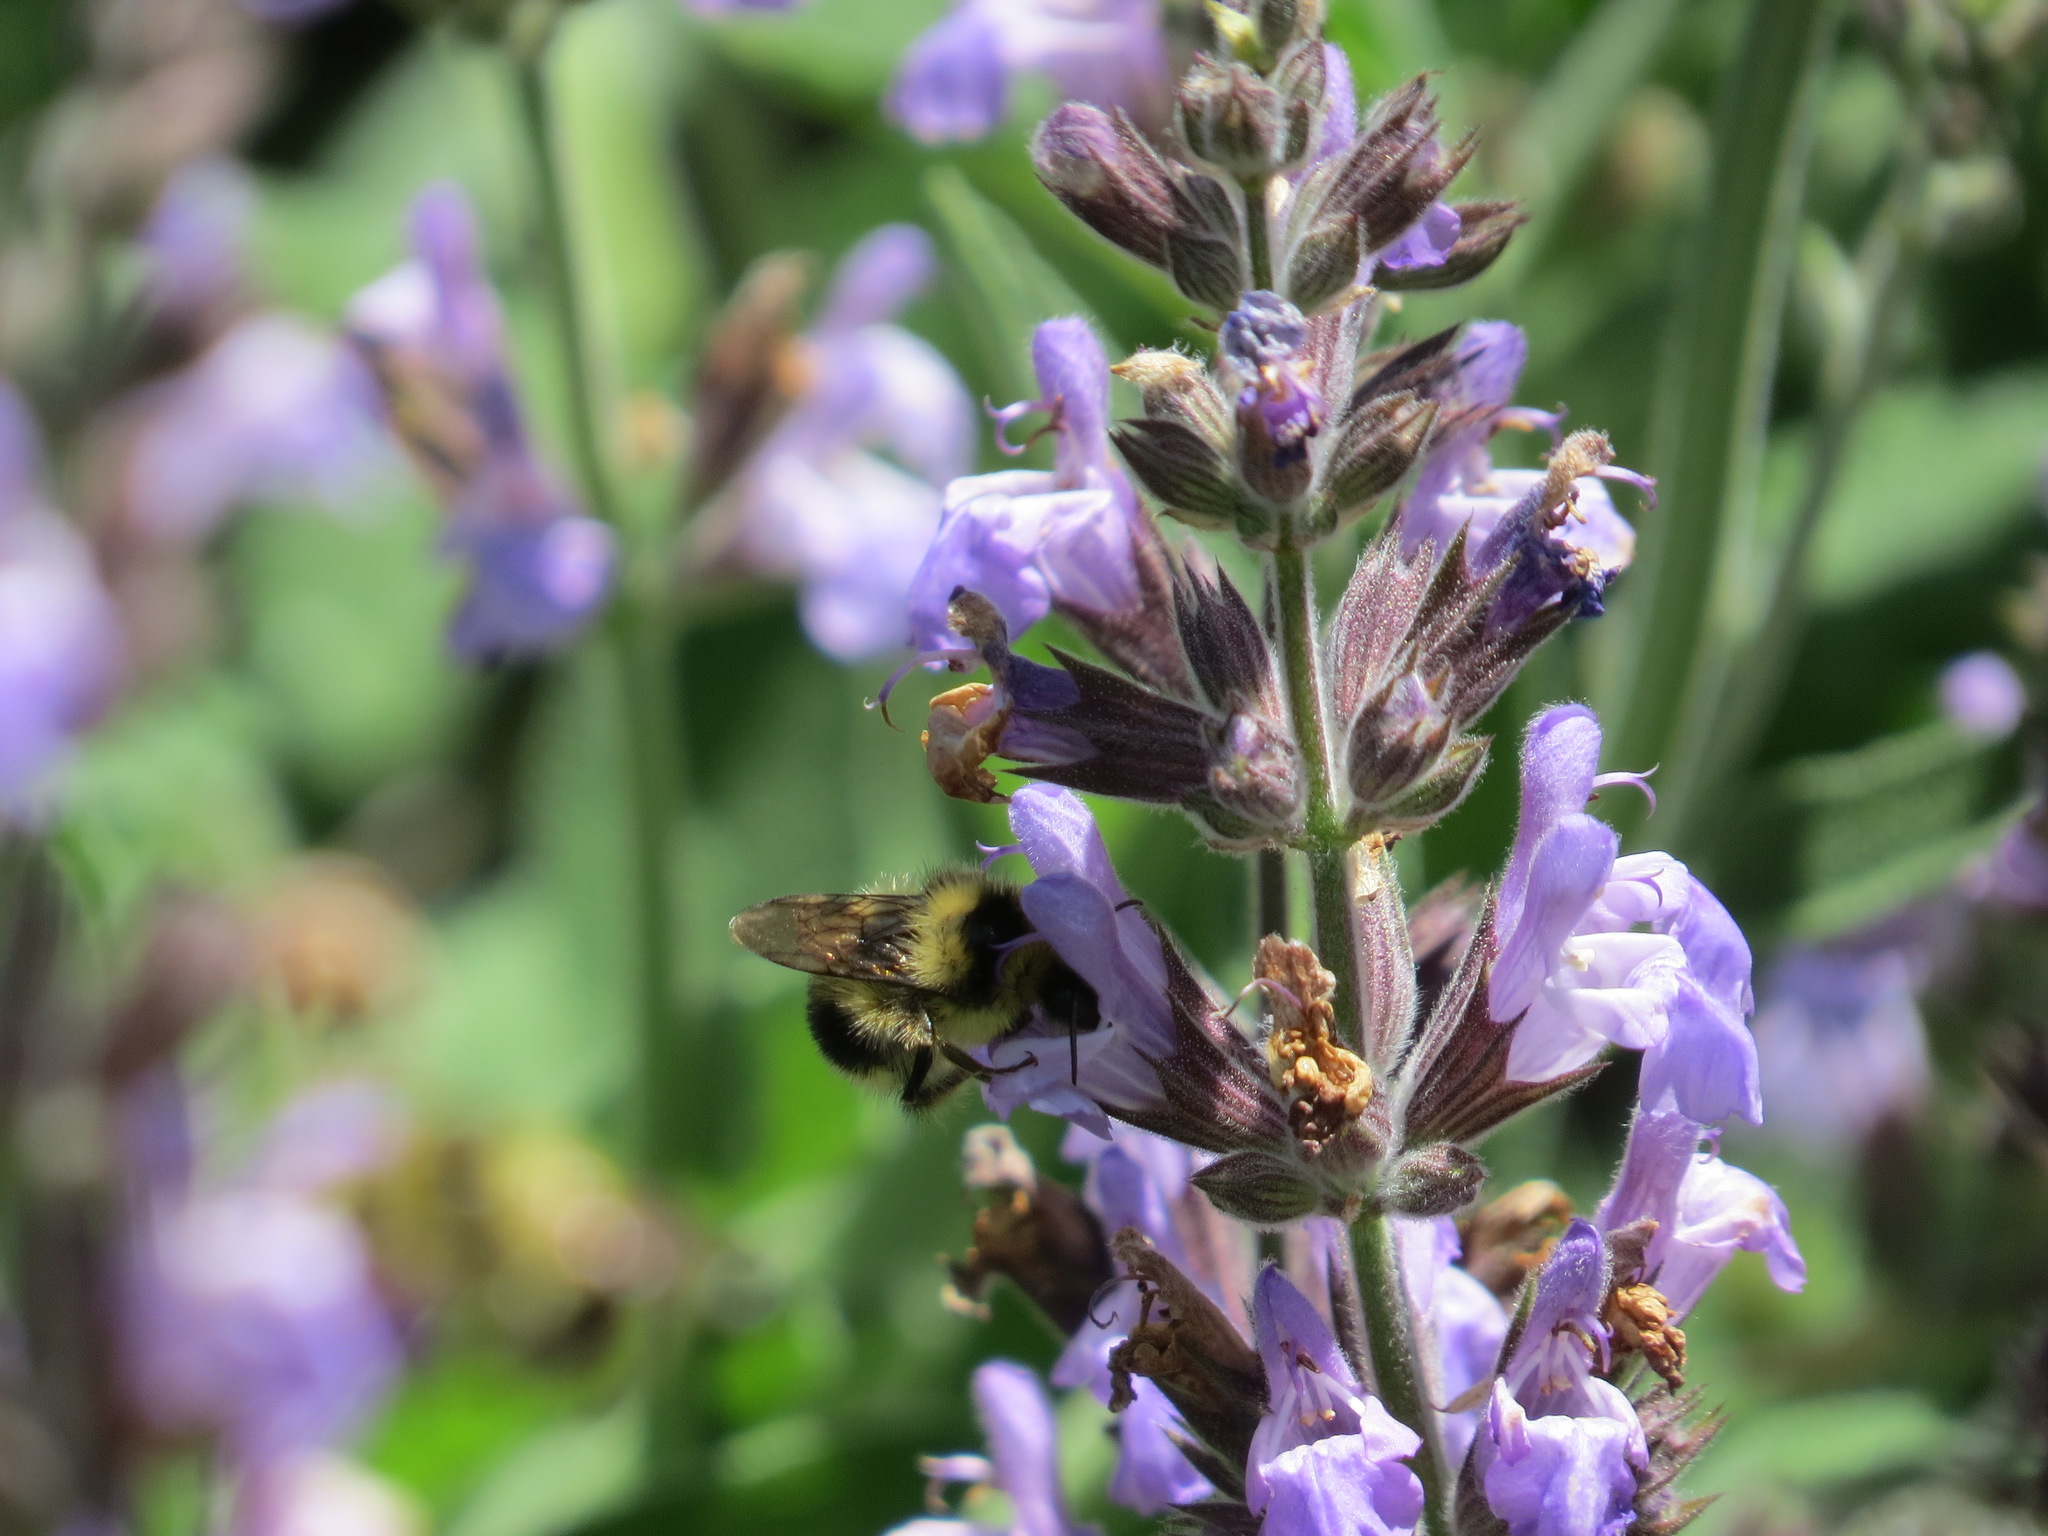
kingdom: Animalia
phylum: Arthropoda
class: Insecta
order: Hymenoptera
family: Apidae
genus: Bombus
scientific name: Bombus melanopygus
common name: Black tail bumble bee
